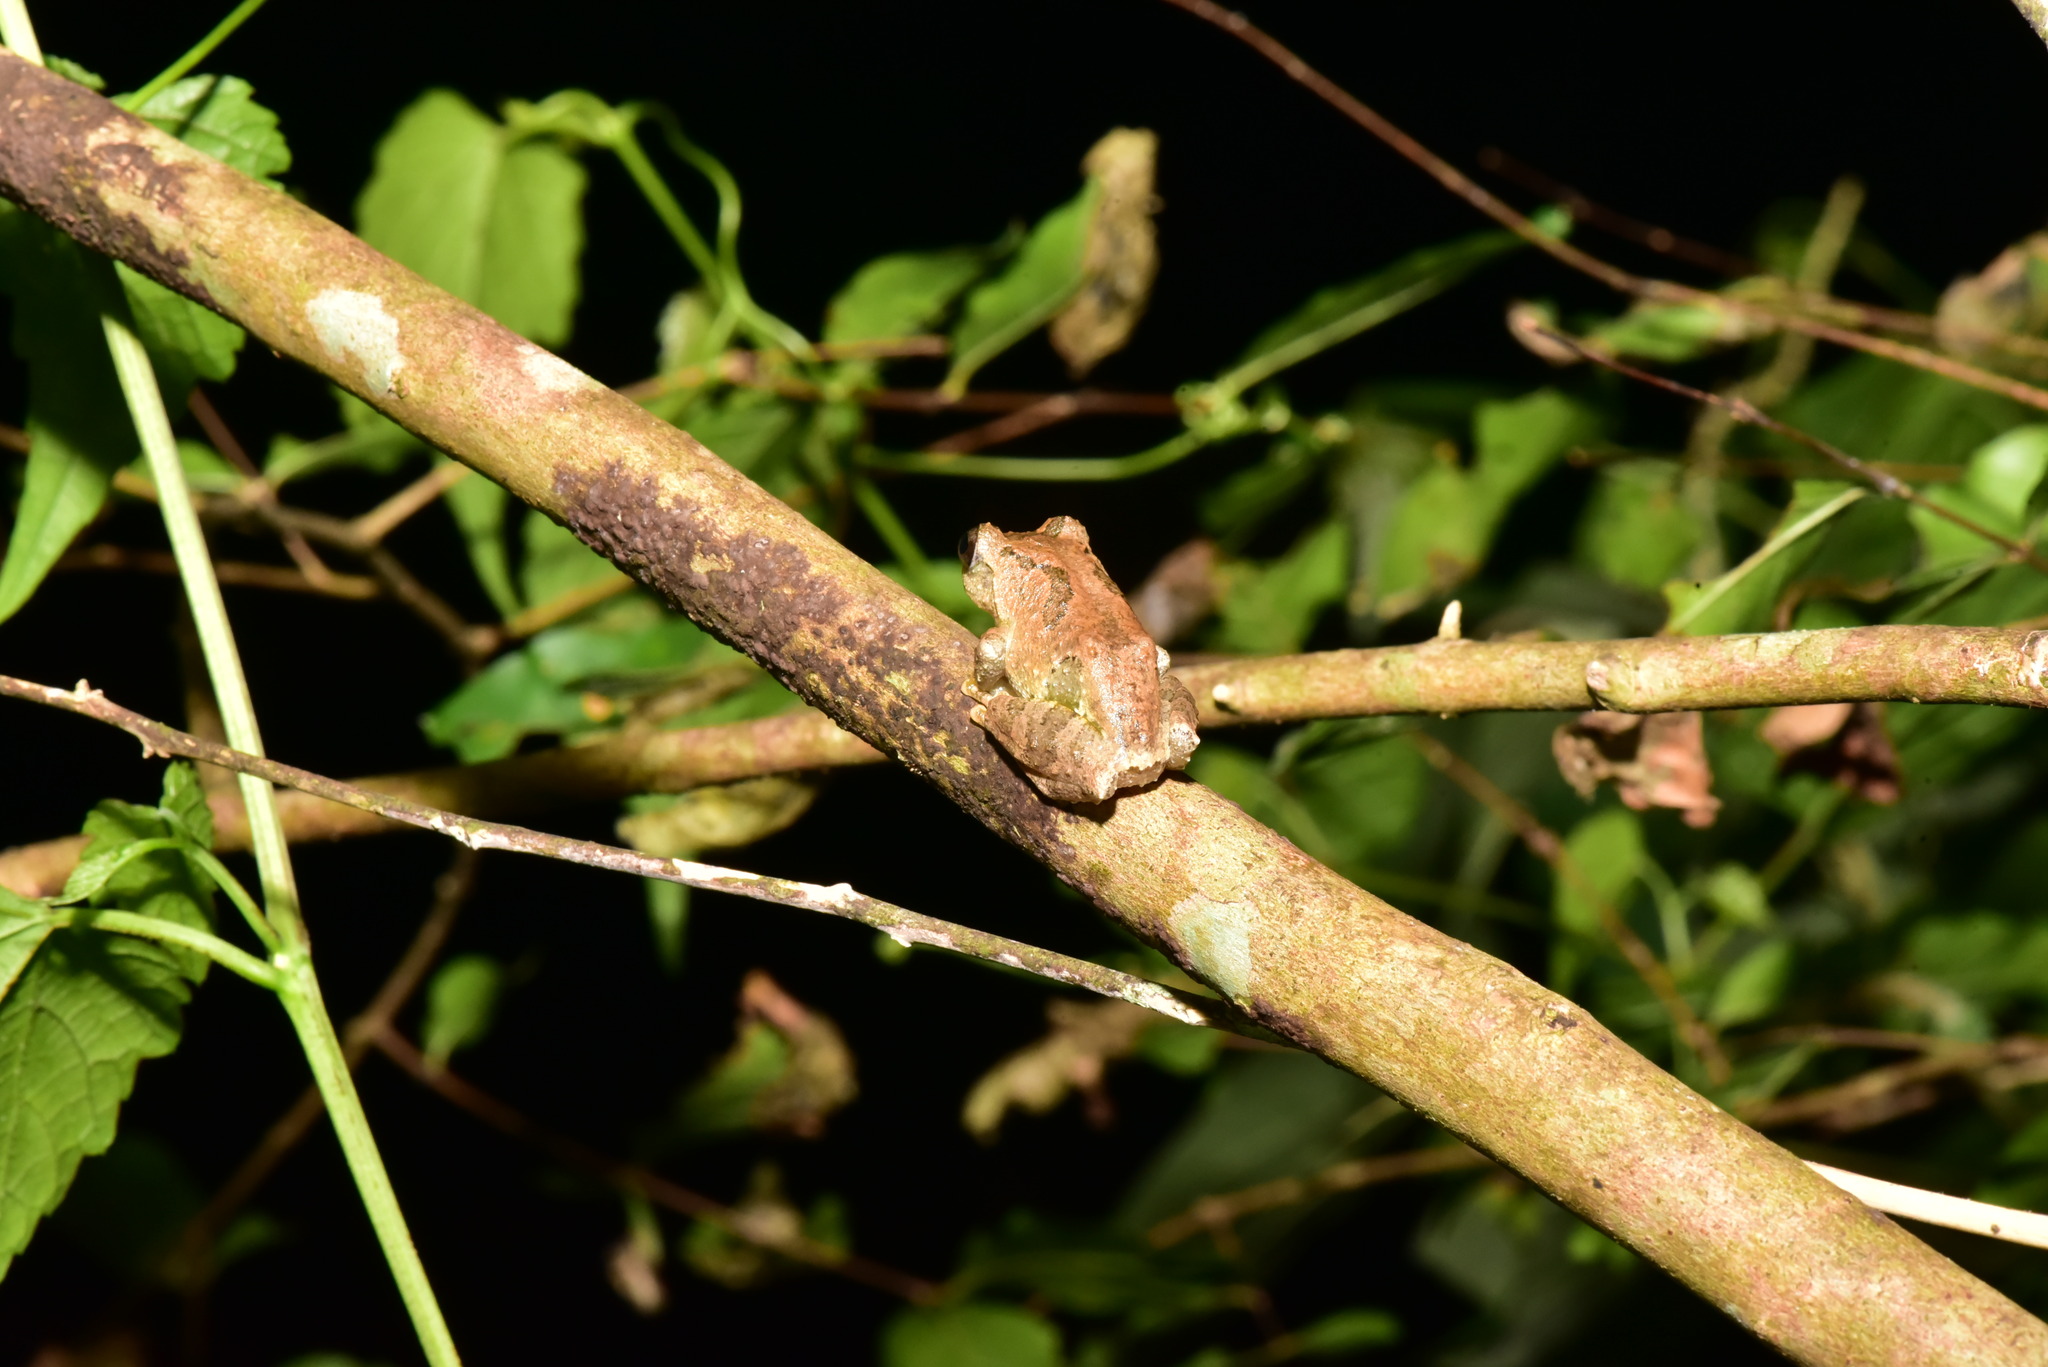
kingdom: Animalia
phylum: Chordata
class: Amphibia
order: Anura
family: Rhacophoridae
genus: Kurixalus
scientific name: Kurixalus idiootocus
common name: Temple treefrog
